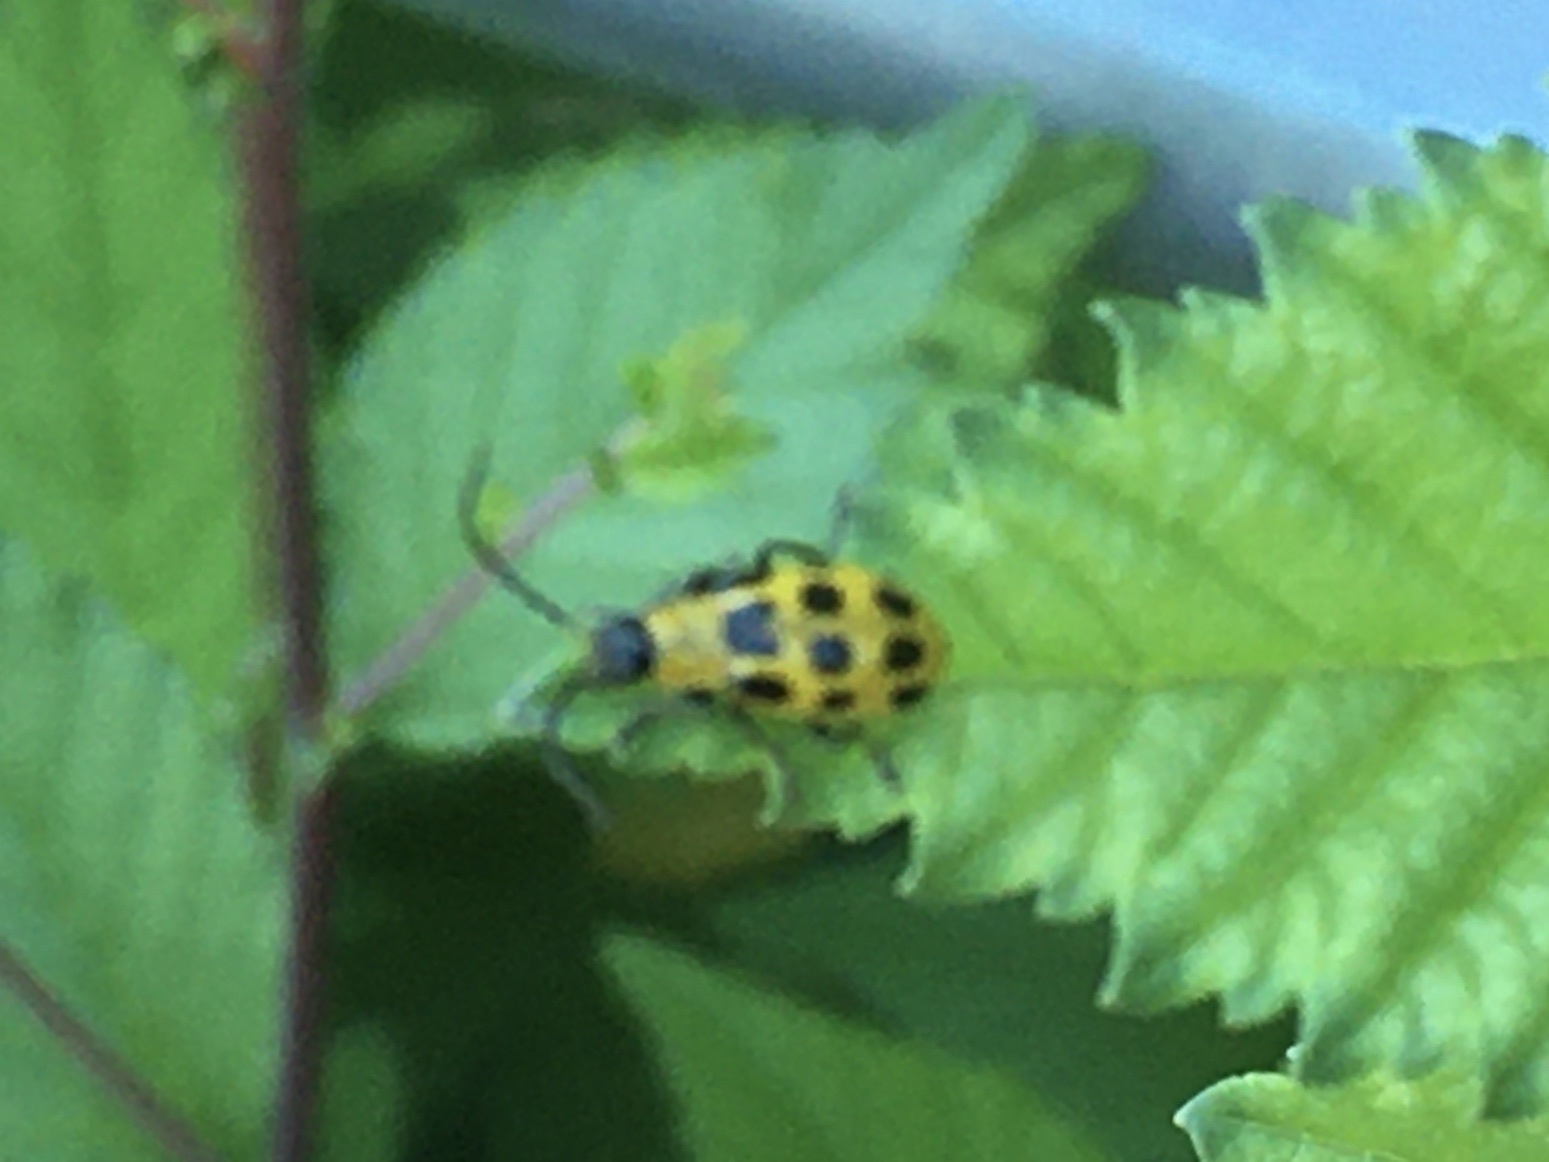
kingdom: Animalia
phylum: Arthropoda
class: Insecta
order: Coleoptera
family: Chrysomelidae
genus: Diabrotica
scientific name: Diabrotica undecimpunctata
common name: Spotted cucumber beetle
